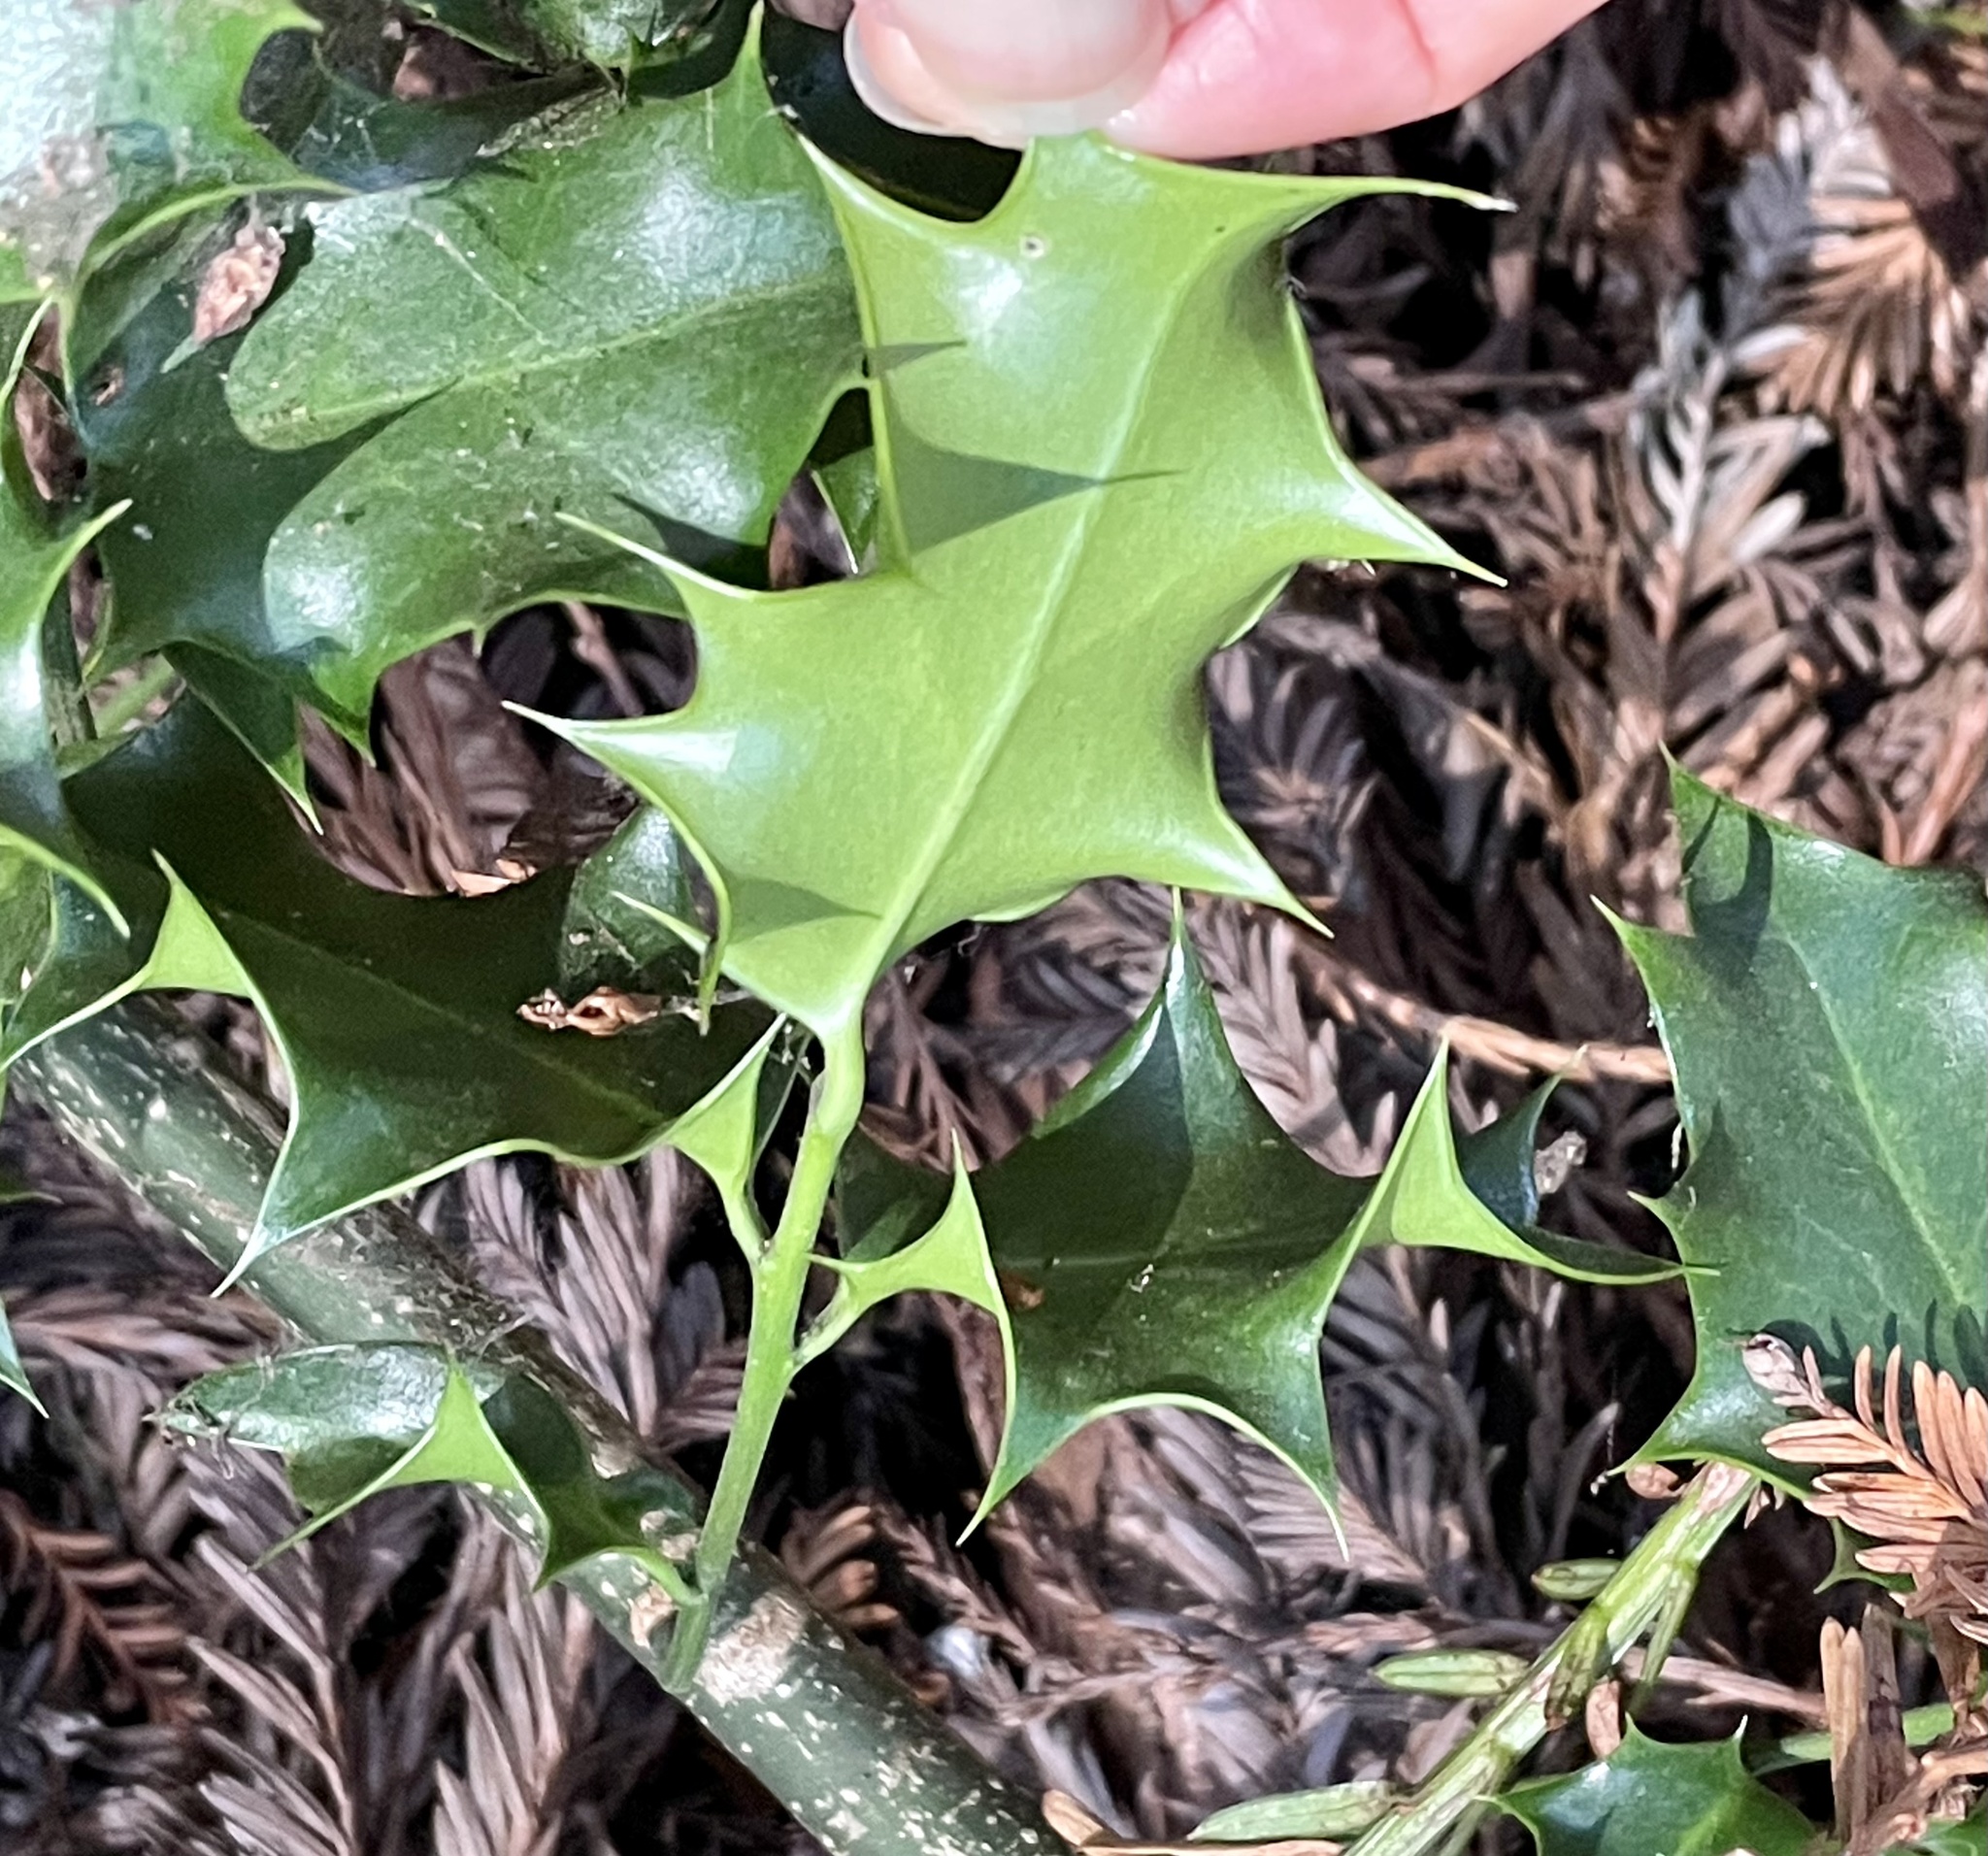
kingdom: Plantae
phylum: Tracheophyta
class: Magnoliopsida
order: Aquifoliales
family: Aquifoliaceae
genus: Ilex
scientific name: Ilex aquifolium
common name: English holly
